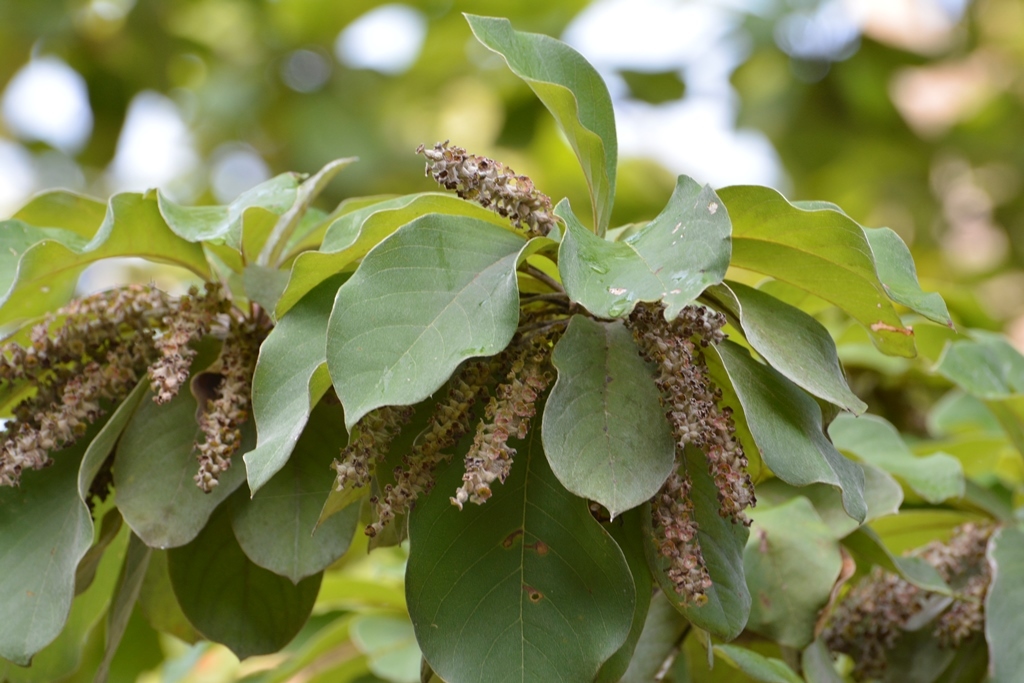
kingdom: Plantae
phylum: Tracheophyta
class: Magnoliopsida
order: Myrtales
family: Combretaceae
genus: Terminalia
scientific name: Terminalia macrostachya
